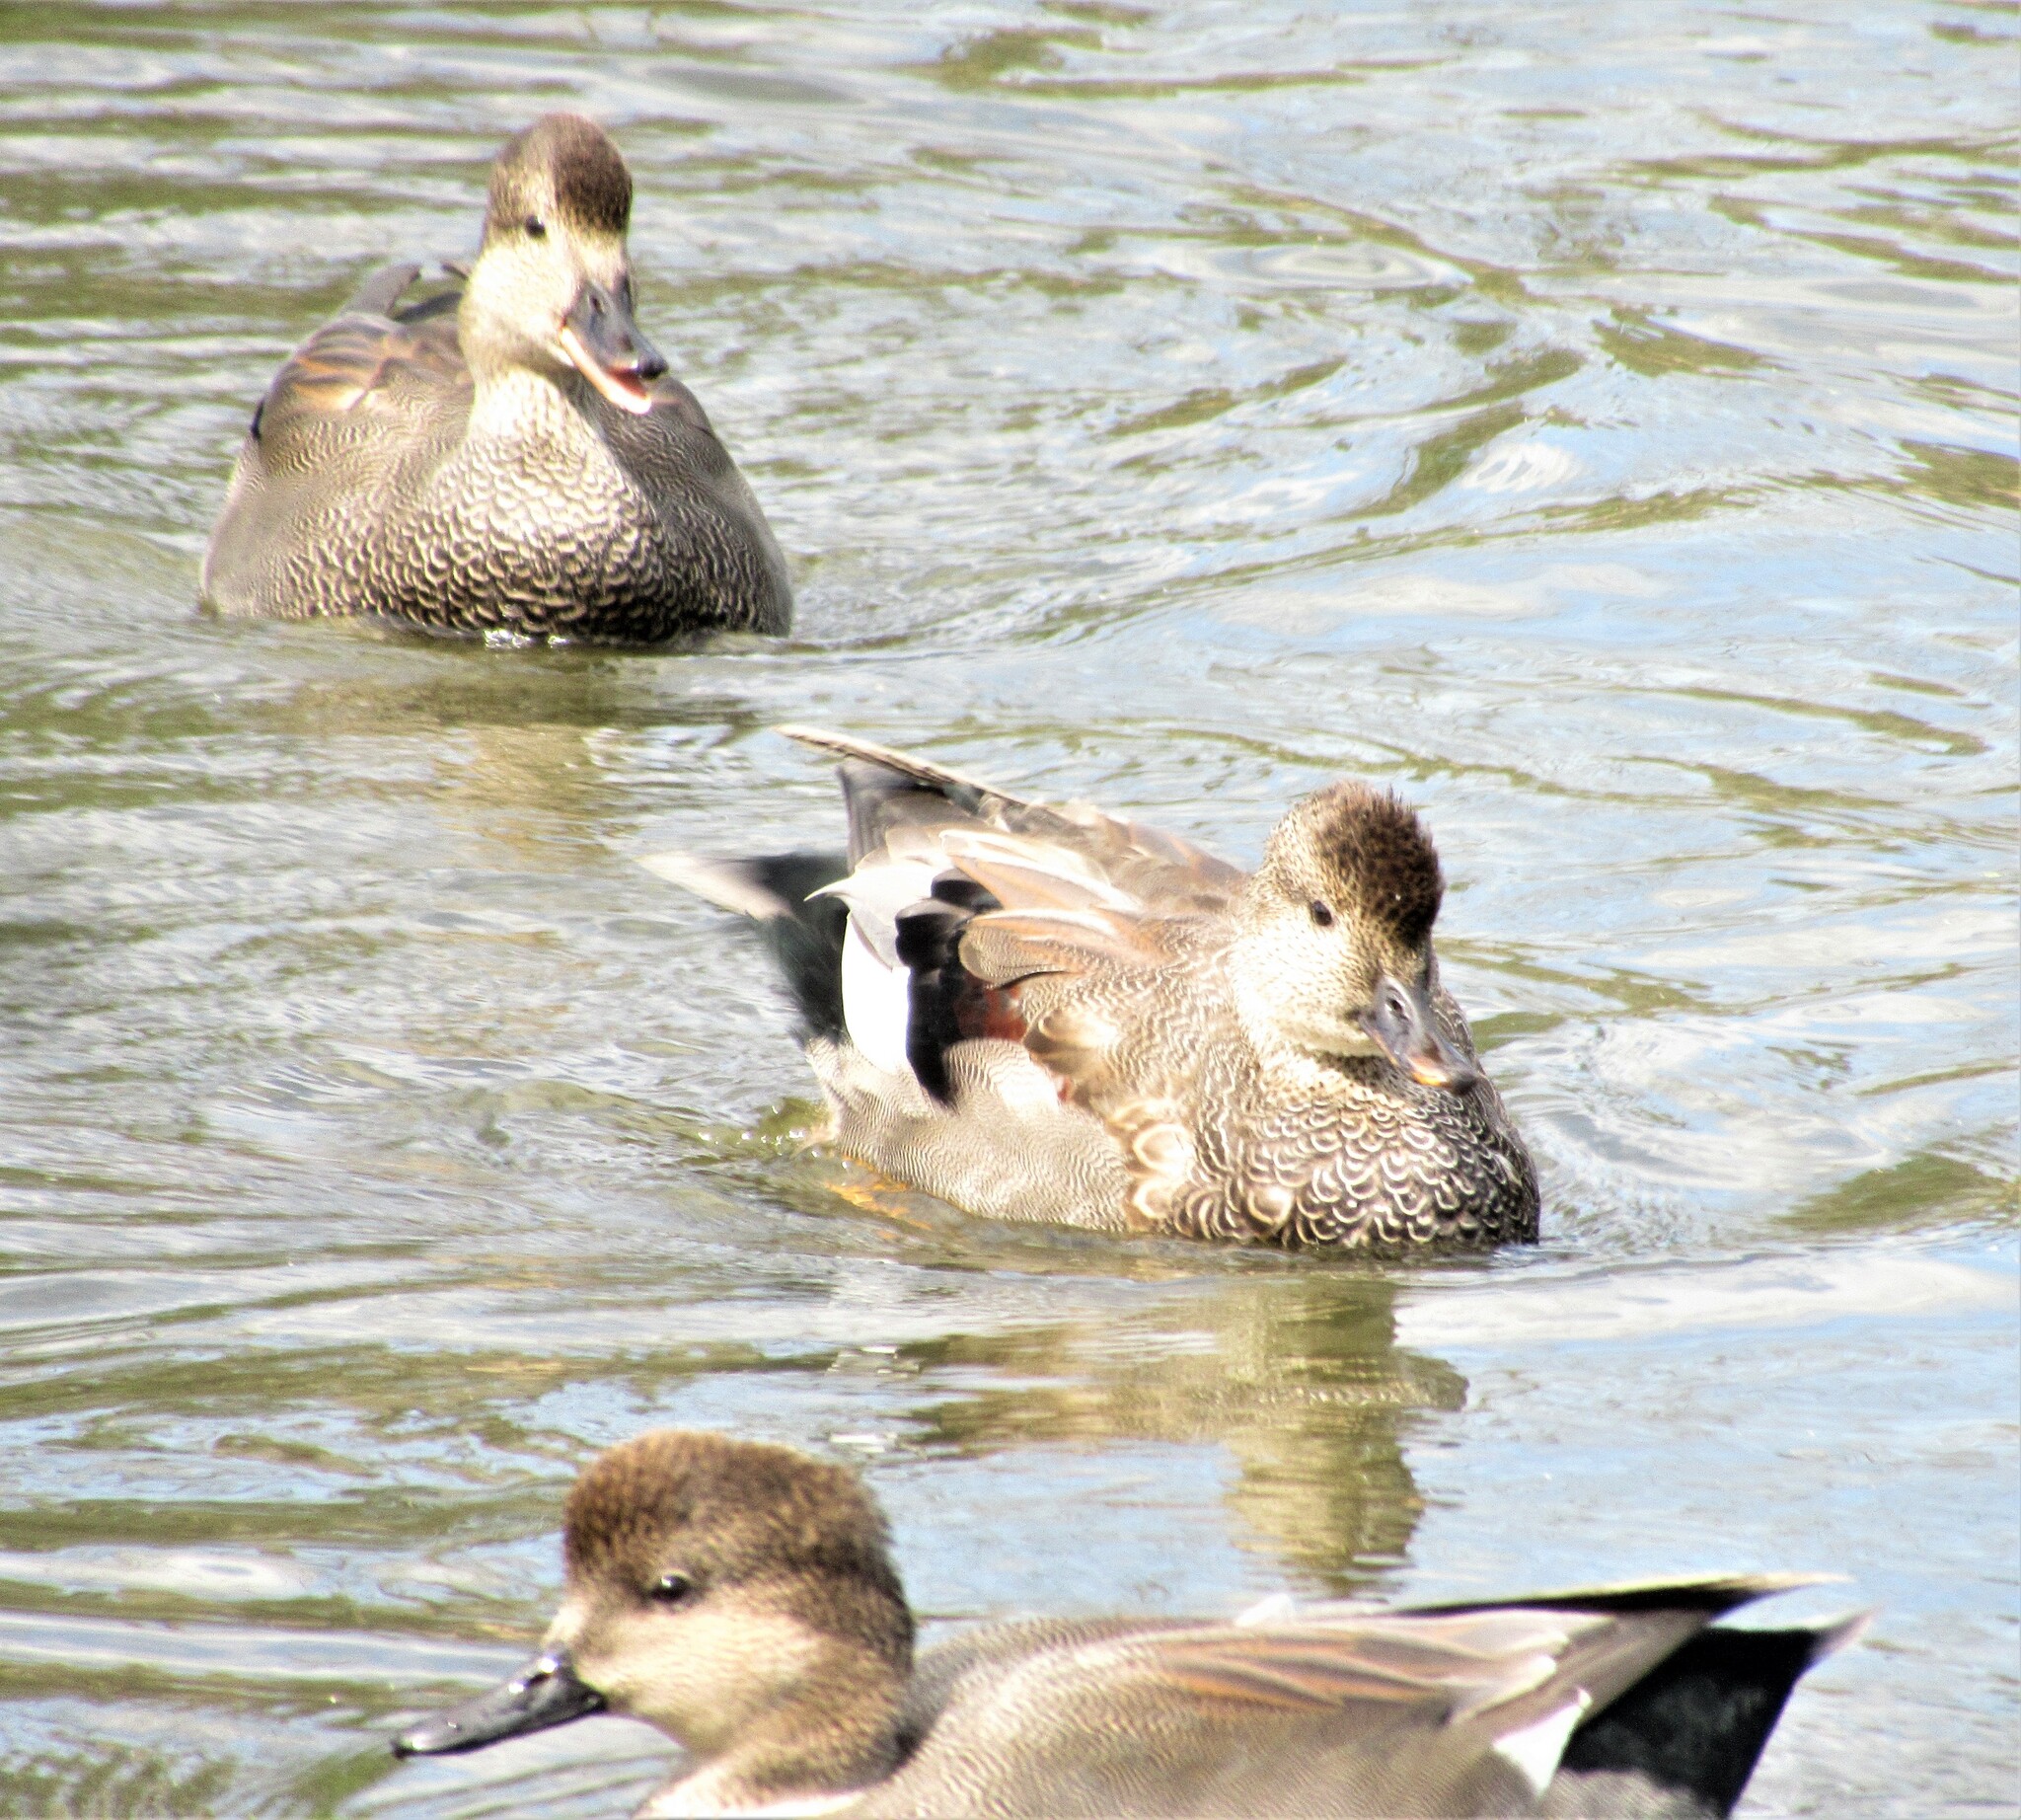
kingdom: Animalia
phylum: Chordata
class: Aves
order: Anseriformes
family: Anatidae
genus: Mareca
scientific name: Mareca strepera
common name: Gadwall
